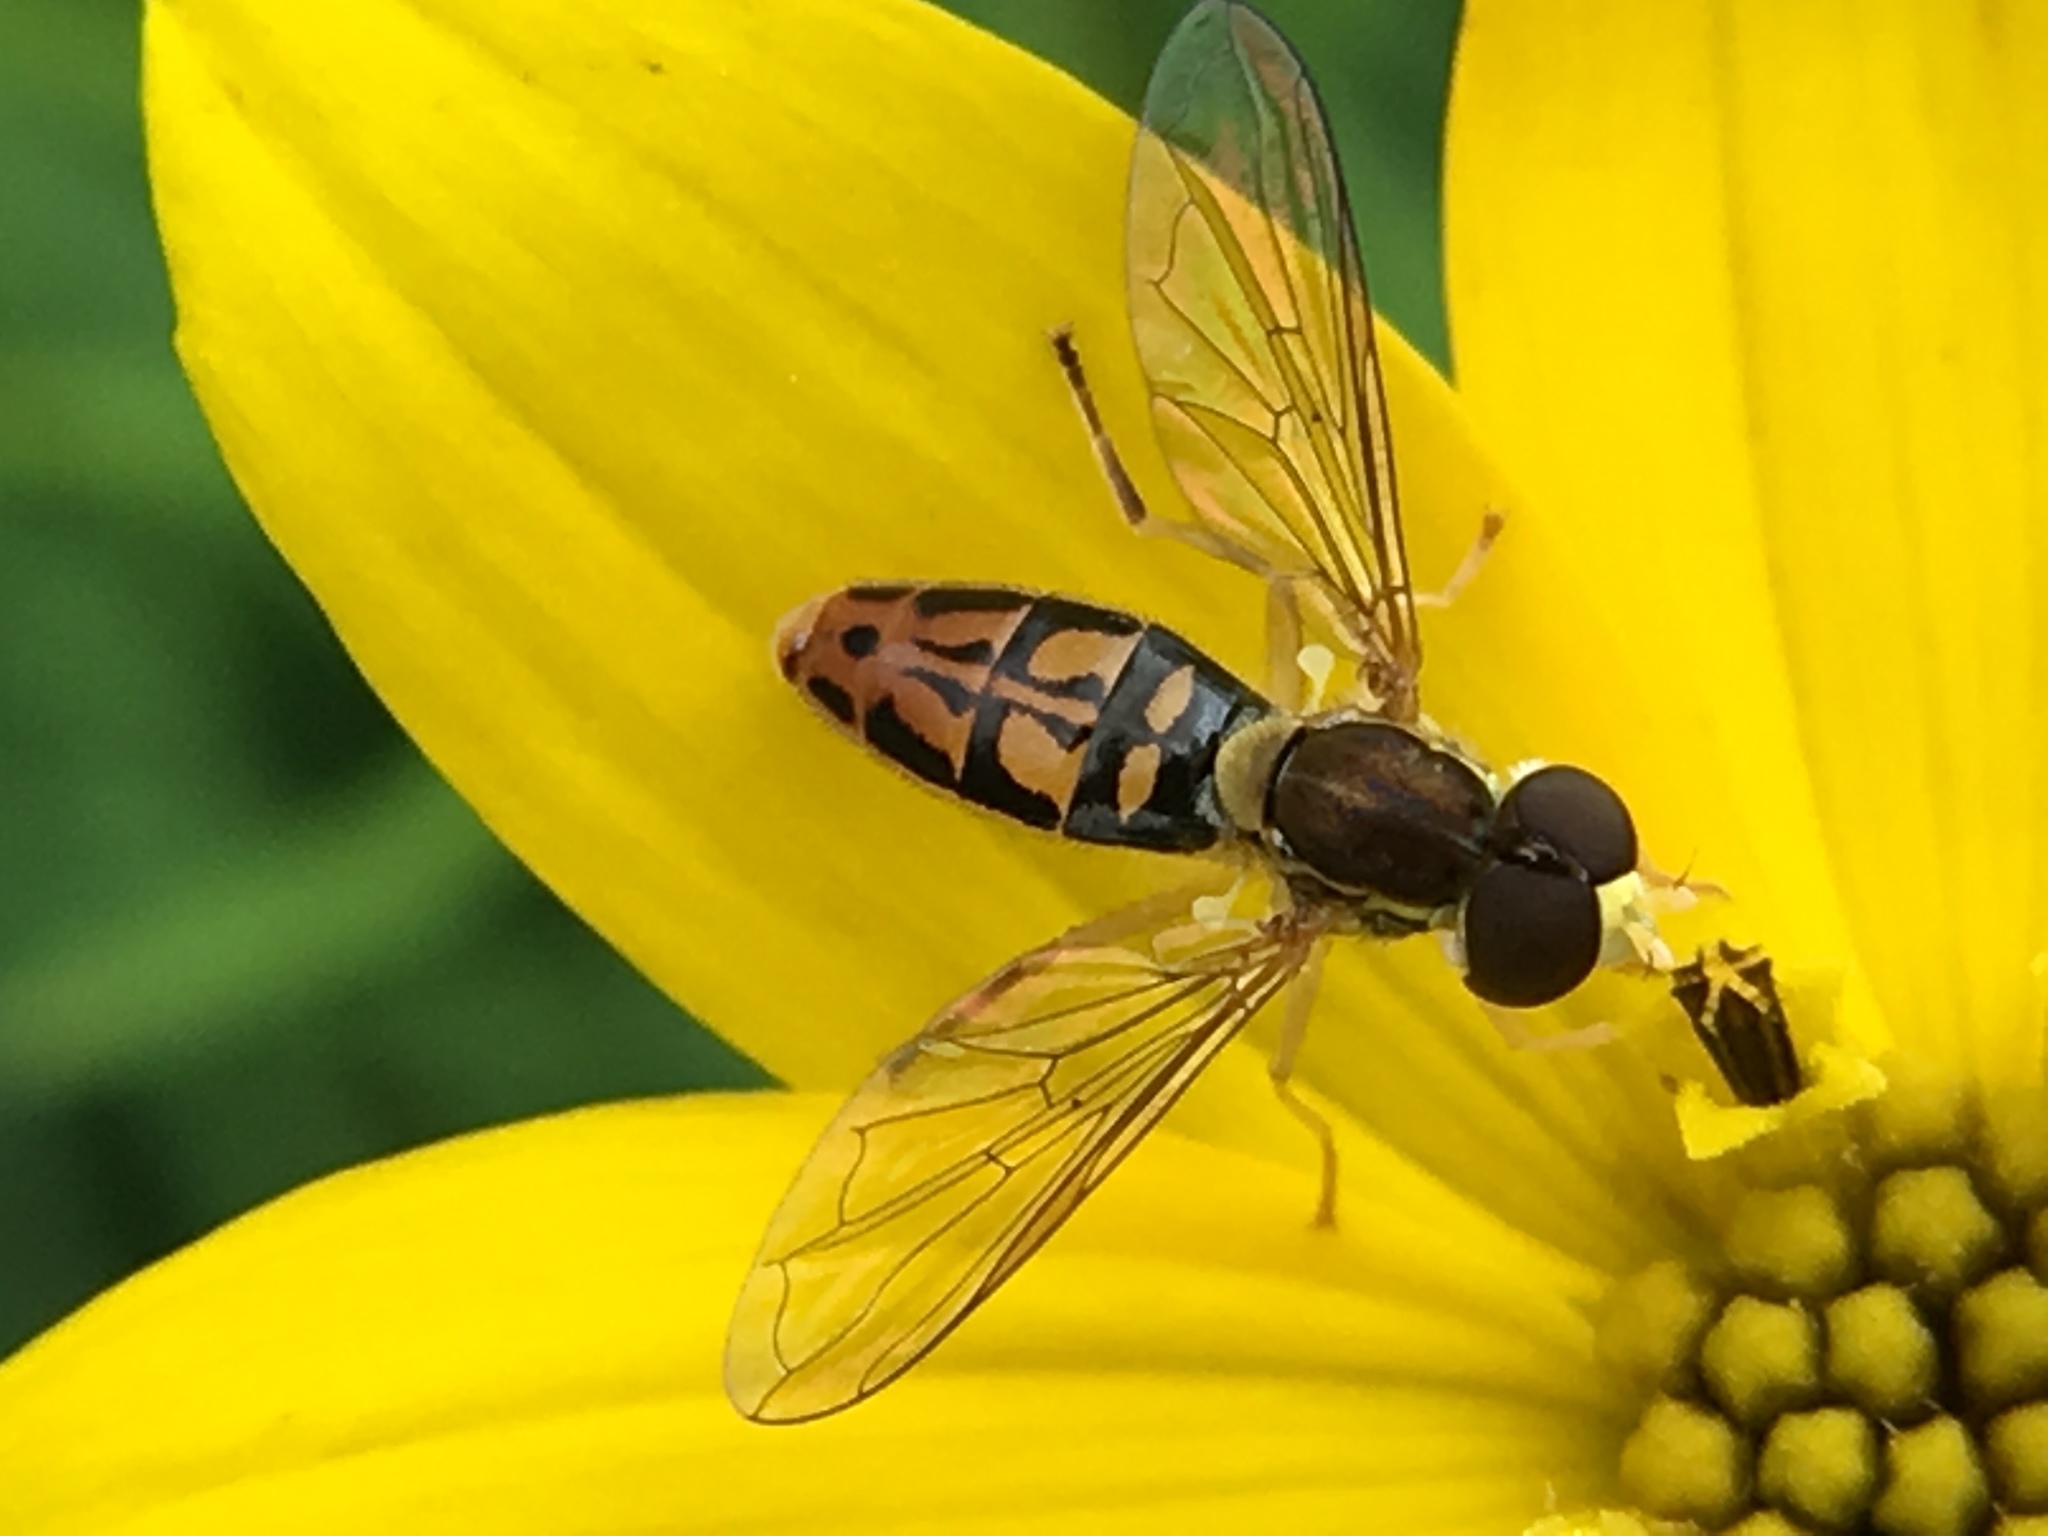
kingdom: Animalia
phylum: Arthropoda
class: Insecta
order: Diptera
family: Syrphidae
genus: Toxomerus
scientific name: Toxomerus marginatus
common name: Syrphid fly
